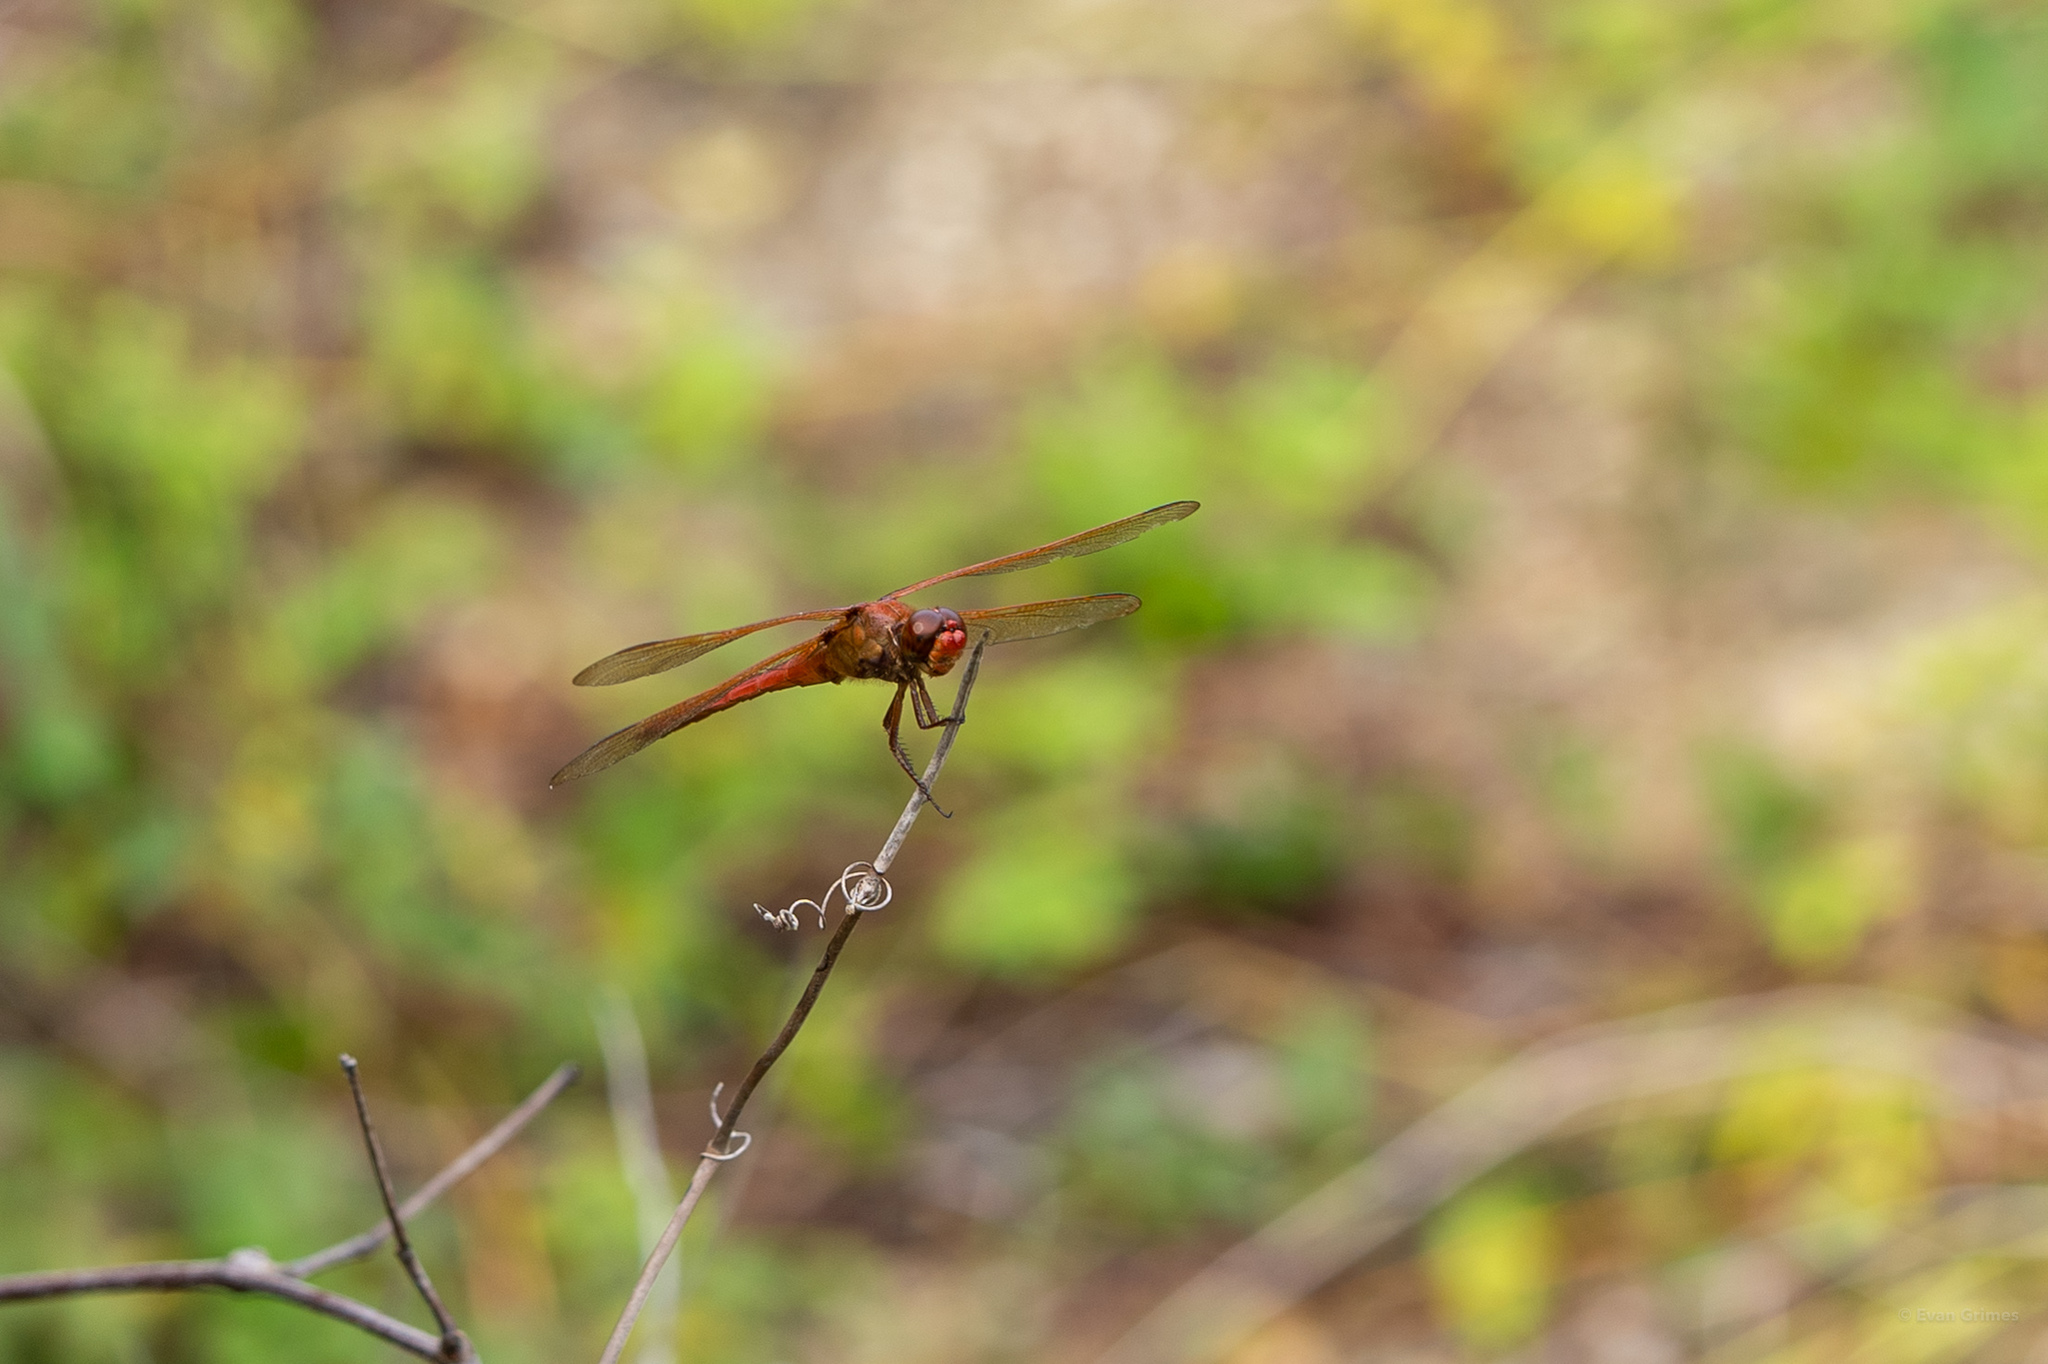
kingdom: Animalia
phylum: Arthropoda
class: Insecta
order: Odonata
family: Libellulidae
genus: Libellula
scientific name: Libellula needhami
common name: Needham's skimmer
